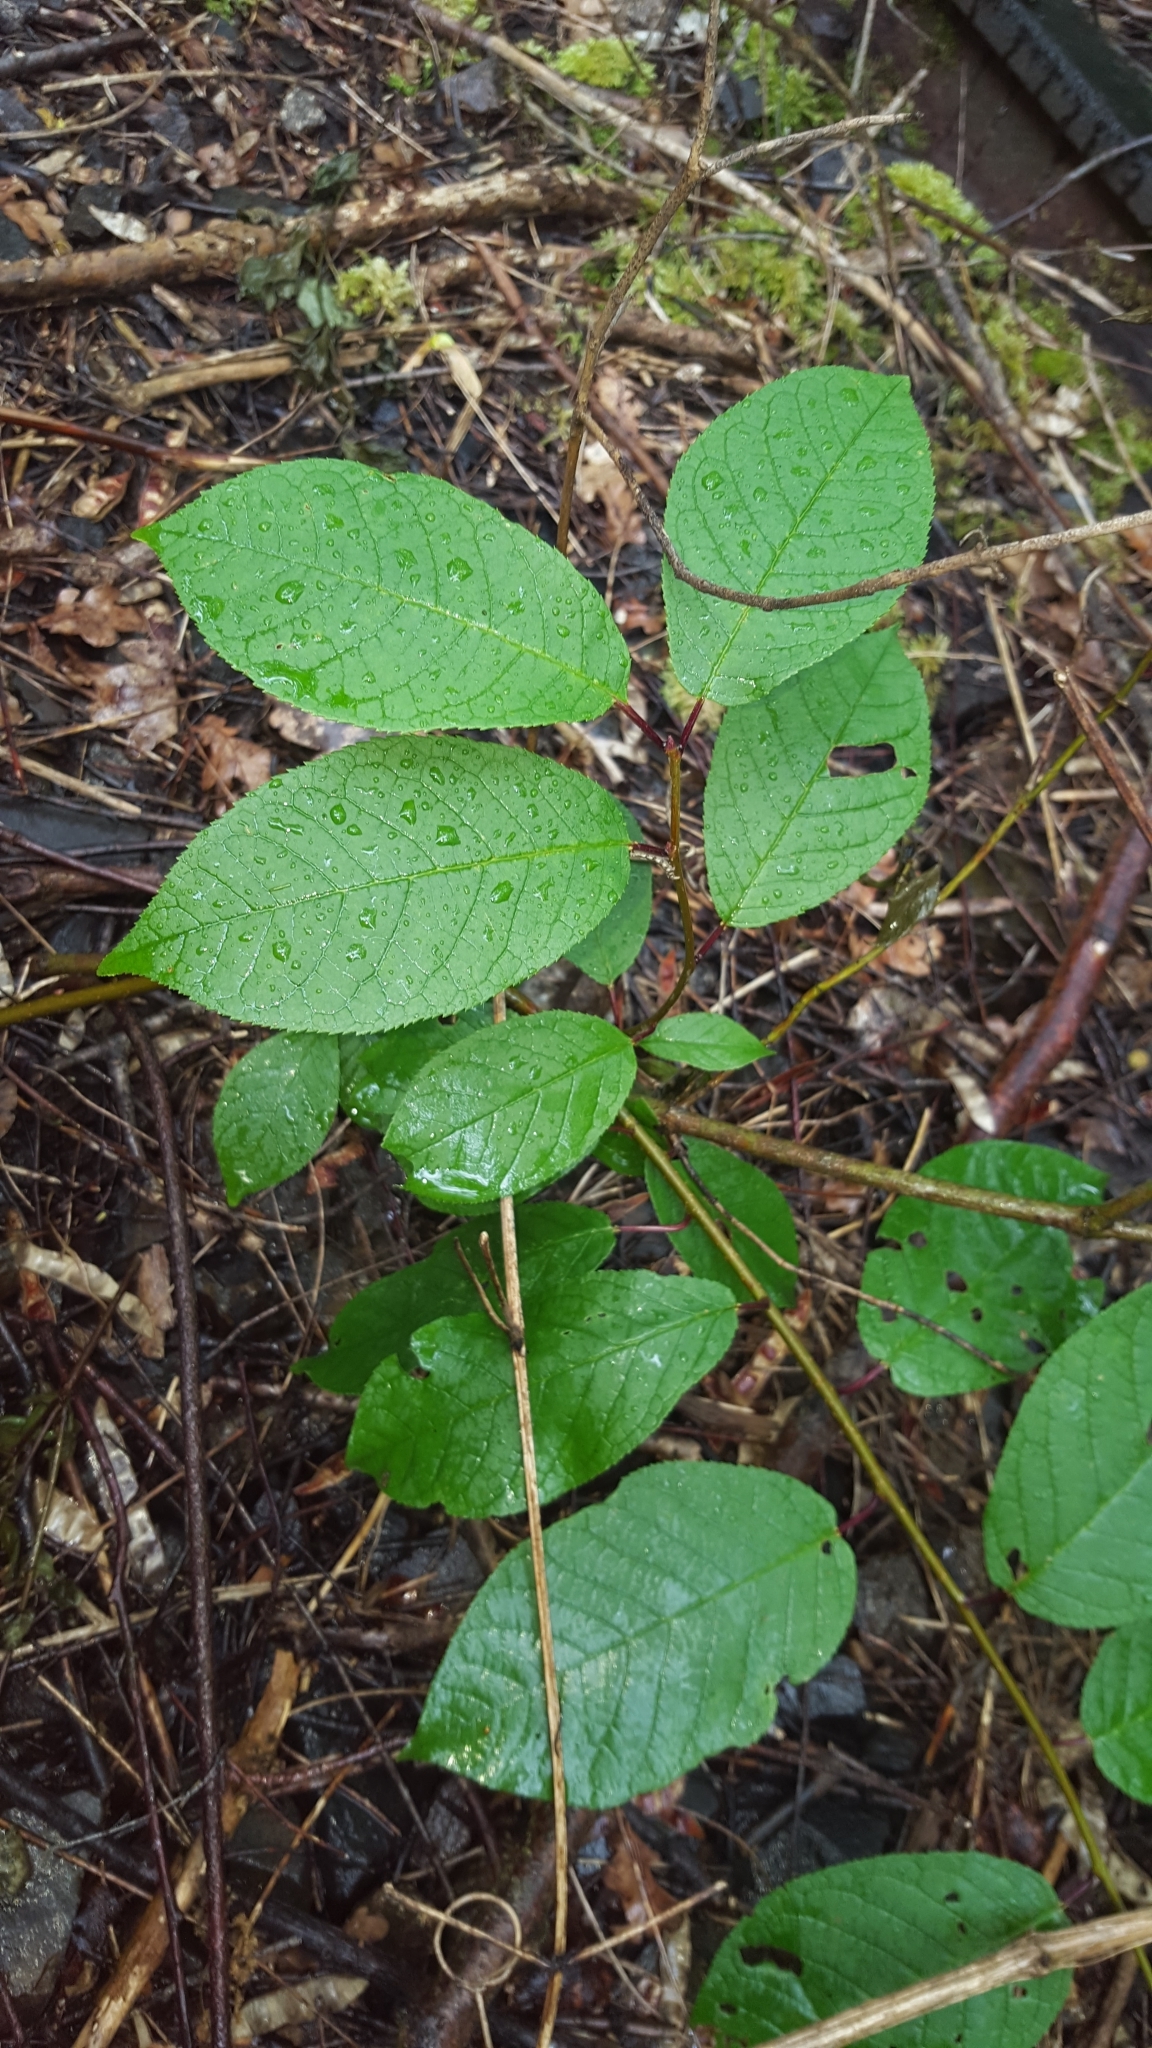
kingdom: Plantae
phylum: Tracheophyta
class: Magnoliopsida
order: Rosales
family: Rosaceae
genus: Prunus
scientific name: Prunus padus
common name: Bird cherry
